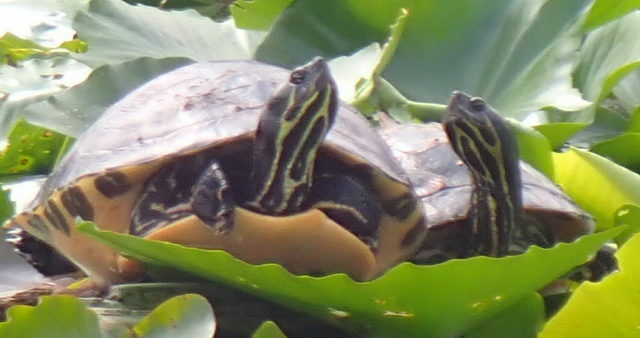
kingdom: Animalia
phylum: Chordata
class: Testudines
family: Emydidae
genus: Pseudemys
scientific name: Pseudemys concinna
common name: Eastern river cooter
